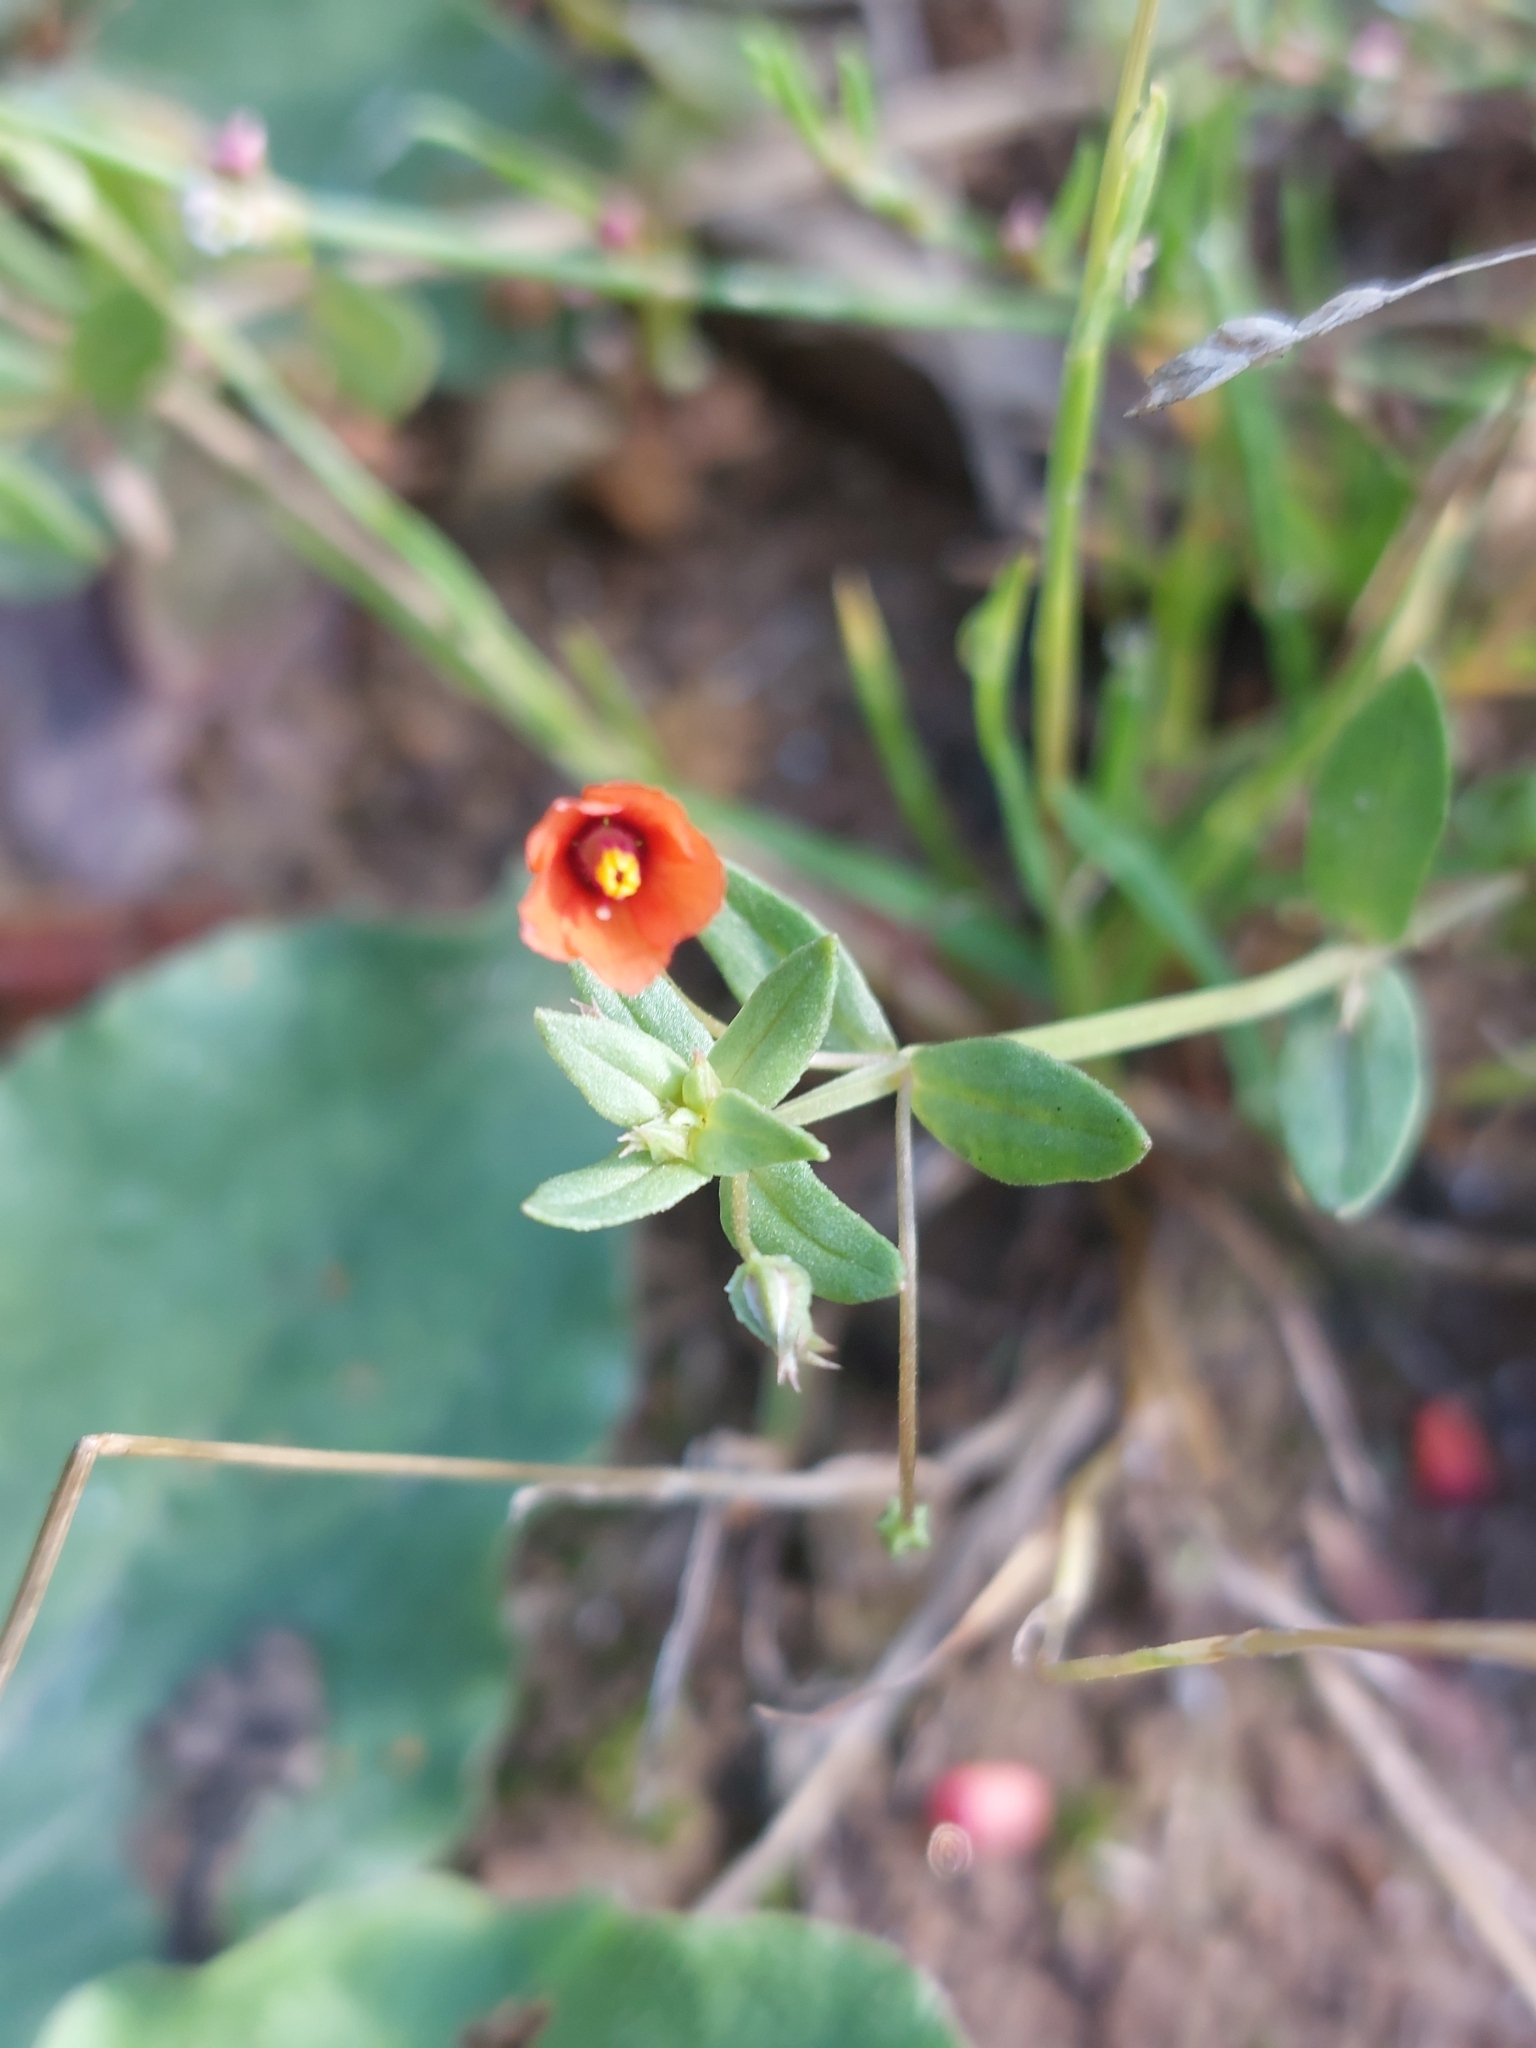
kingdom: Plantae
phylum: Tracheophyta
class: Magnoliopsida
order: Ericales
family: Primulaceae
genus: Lysimachia
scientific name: Lysimachia arvensis
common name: Scarlet pimpernel
